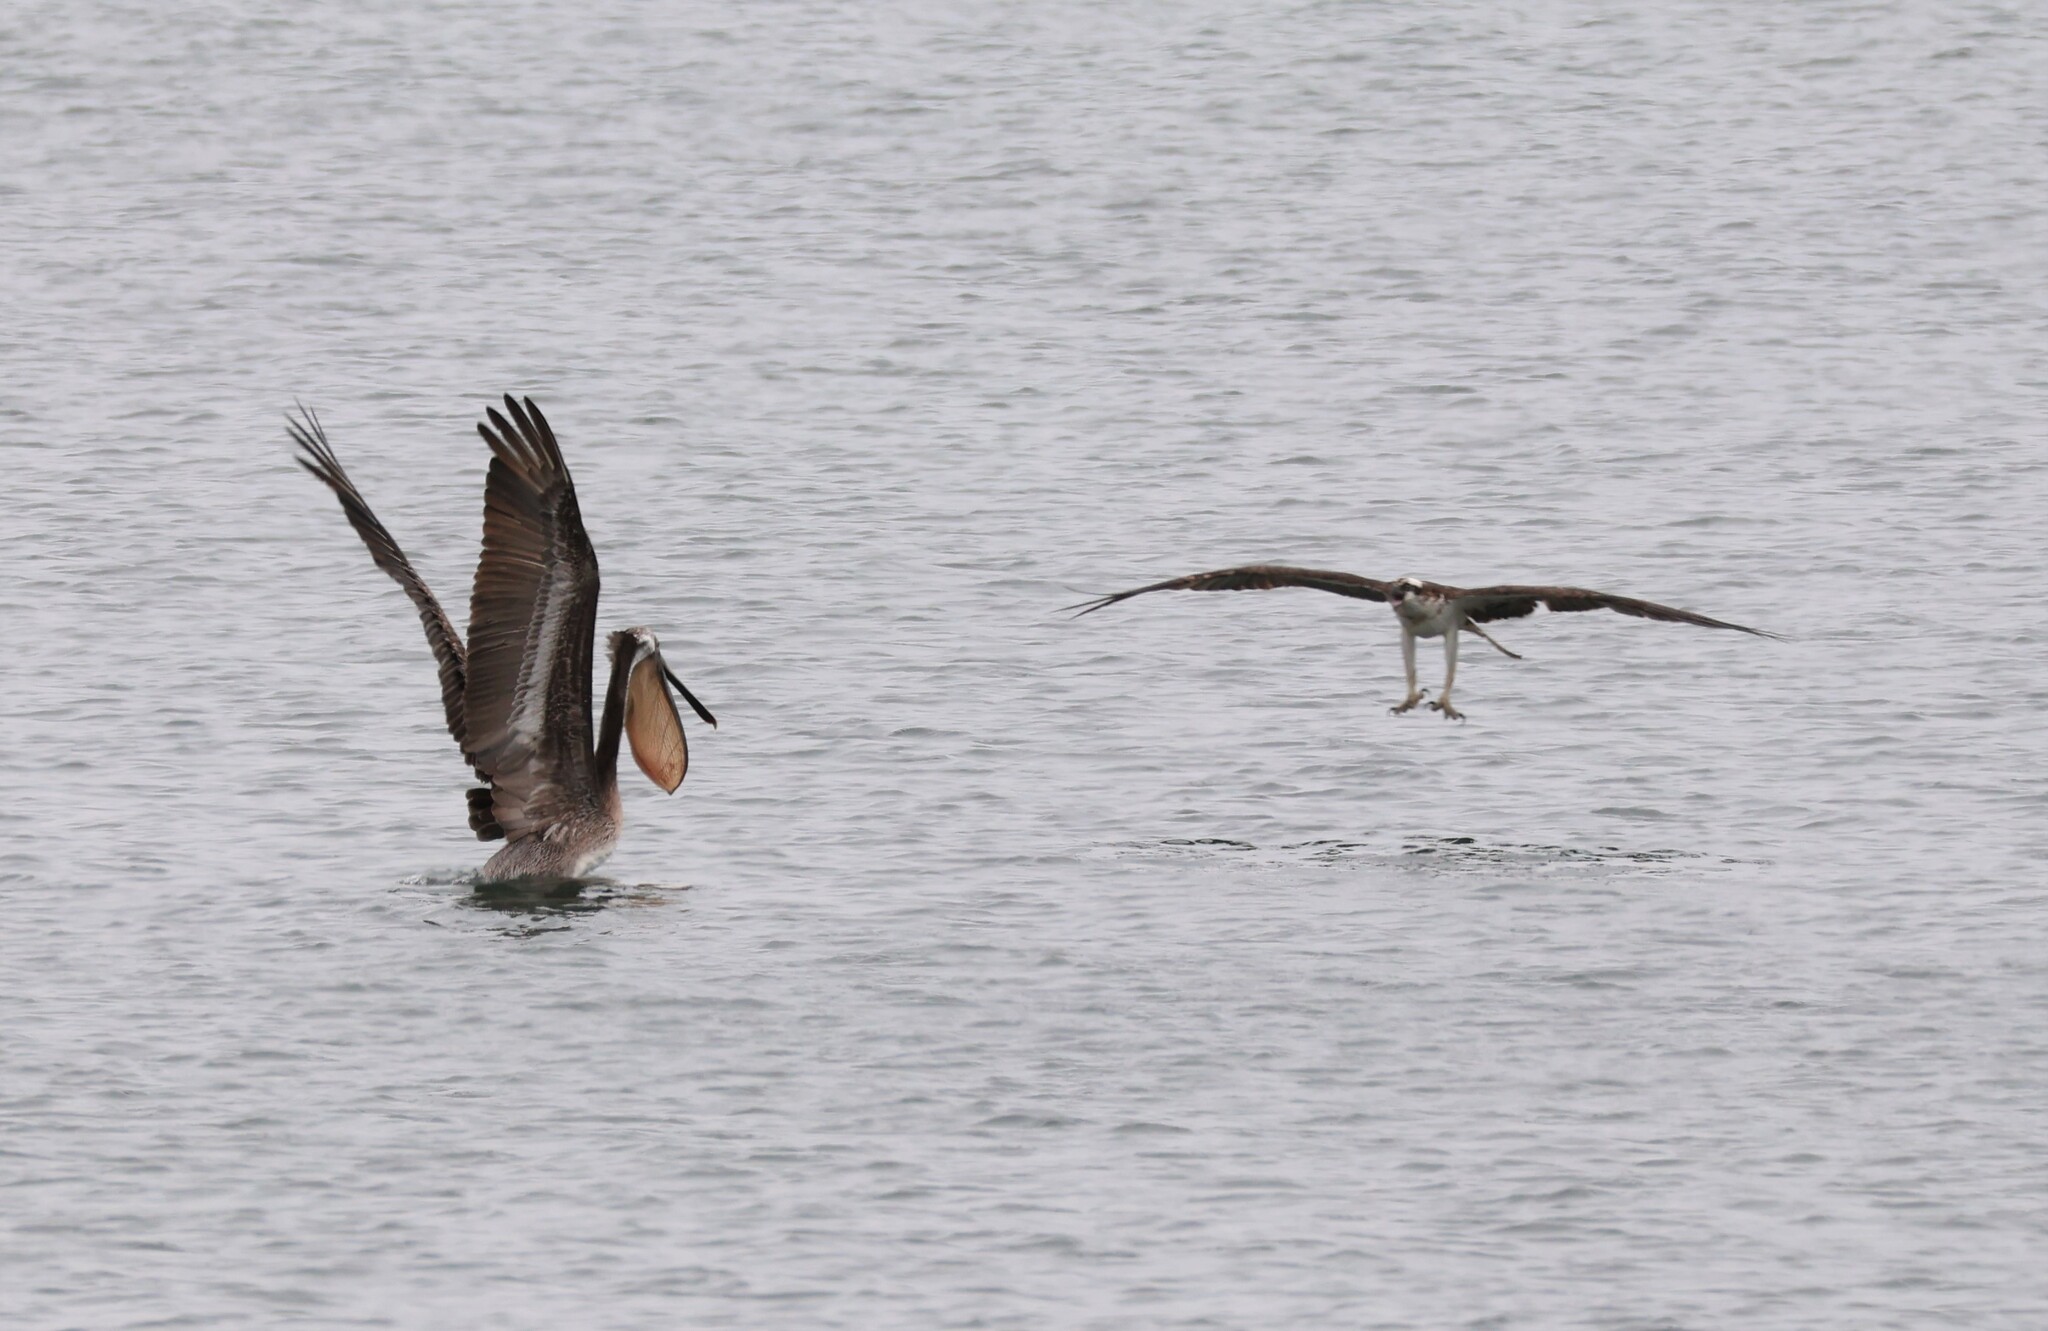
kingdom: Animalia
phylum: Chordata
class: Aves
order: Accipitriformes
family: Pandionidae
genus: Pandion
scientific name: Pandion haliaetus
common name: Osprey
